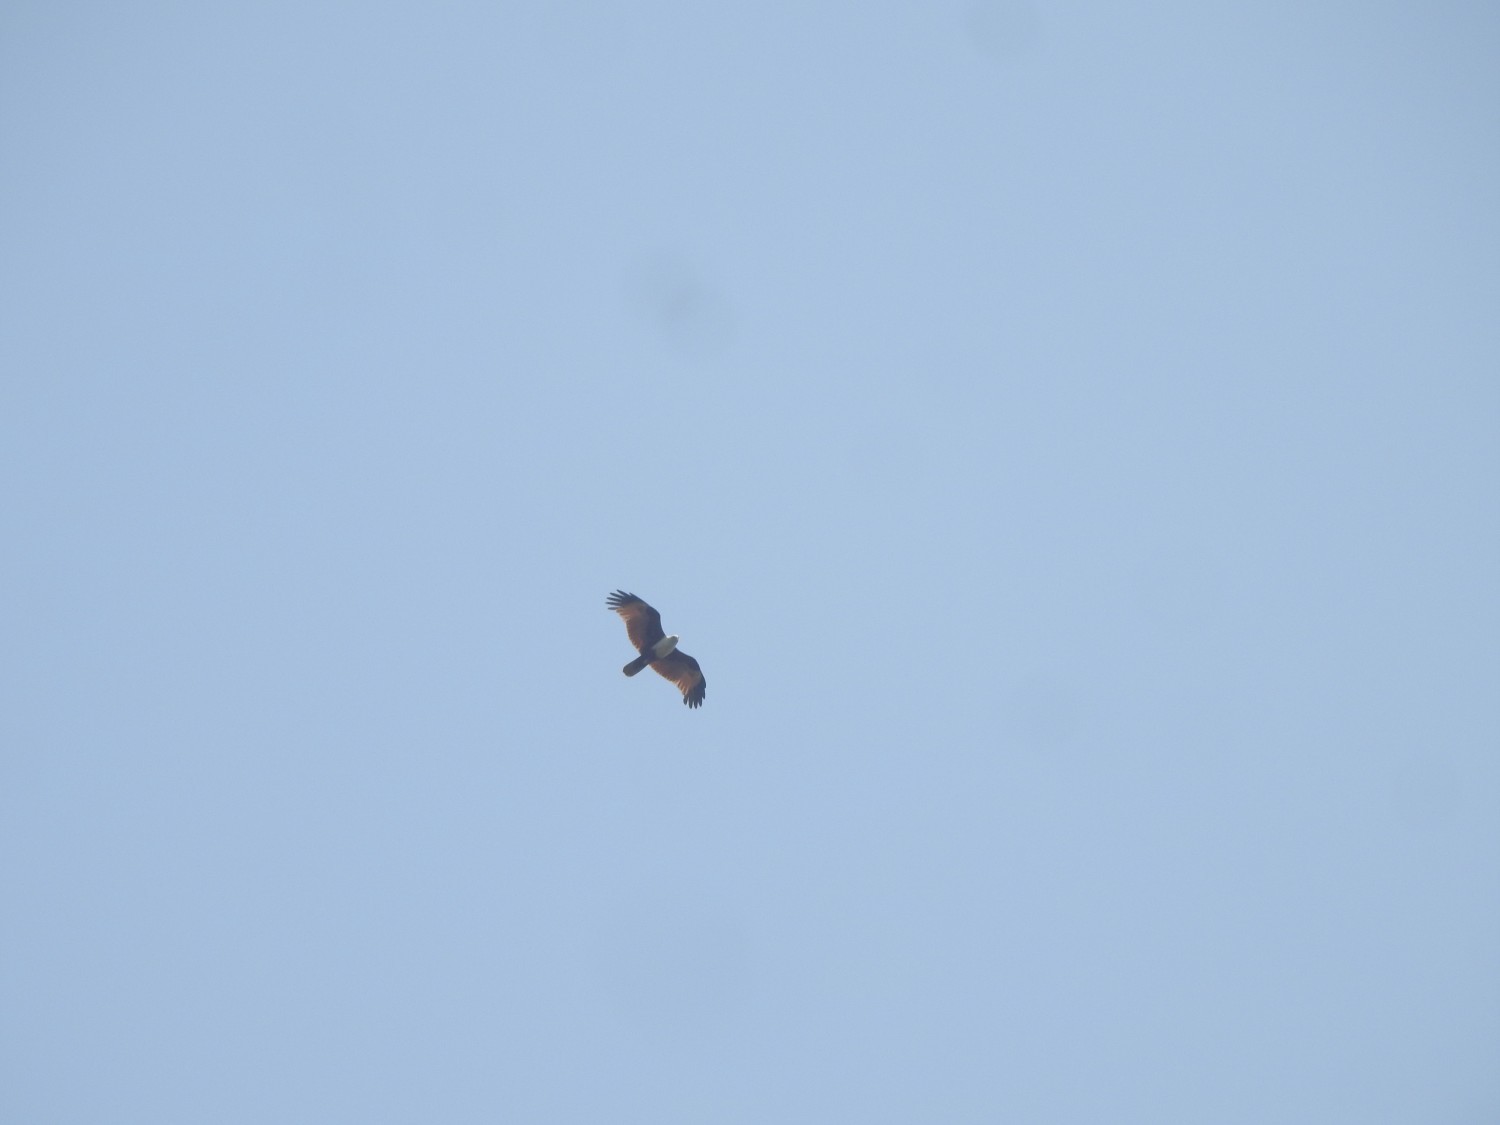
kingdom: Animalia
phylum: Chordata
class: Aves
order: Accipitriformes
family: Accipitridae
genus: Haliastur
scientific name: Haliastur indus
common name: Brahminy kite
